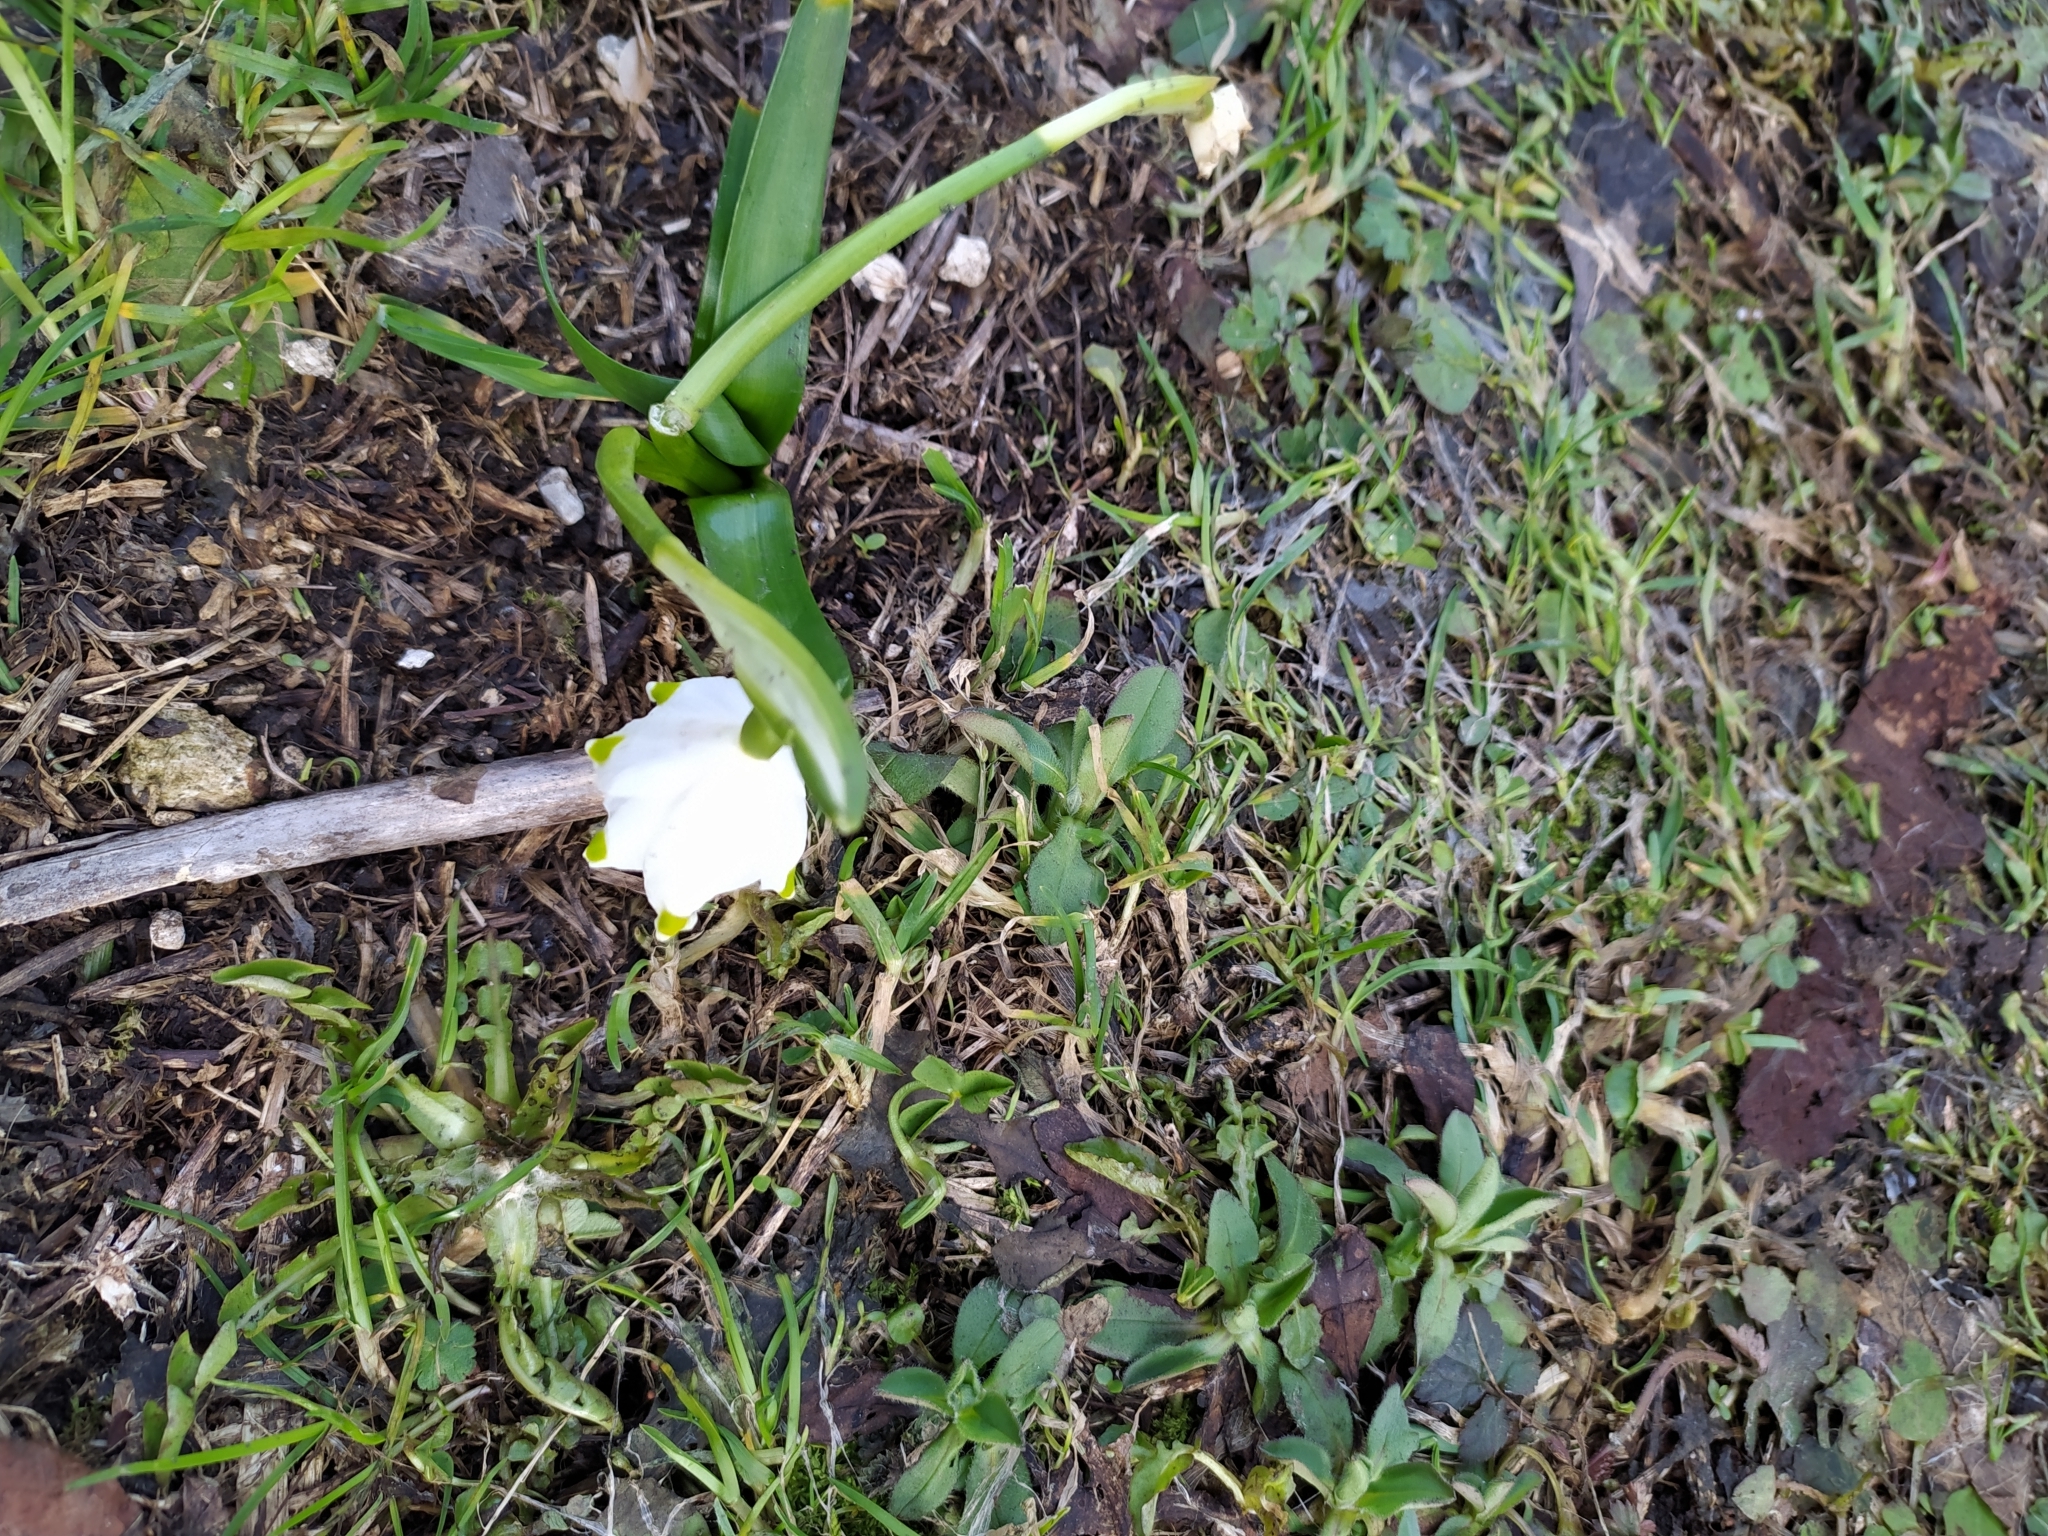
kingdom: Plantae
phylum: Tracheophyta
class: Liliopsida
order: Asparagales
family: Amaryllidaceae
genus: Leucojum
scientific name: Leucojum vernum
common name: Spring snowflake
